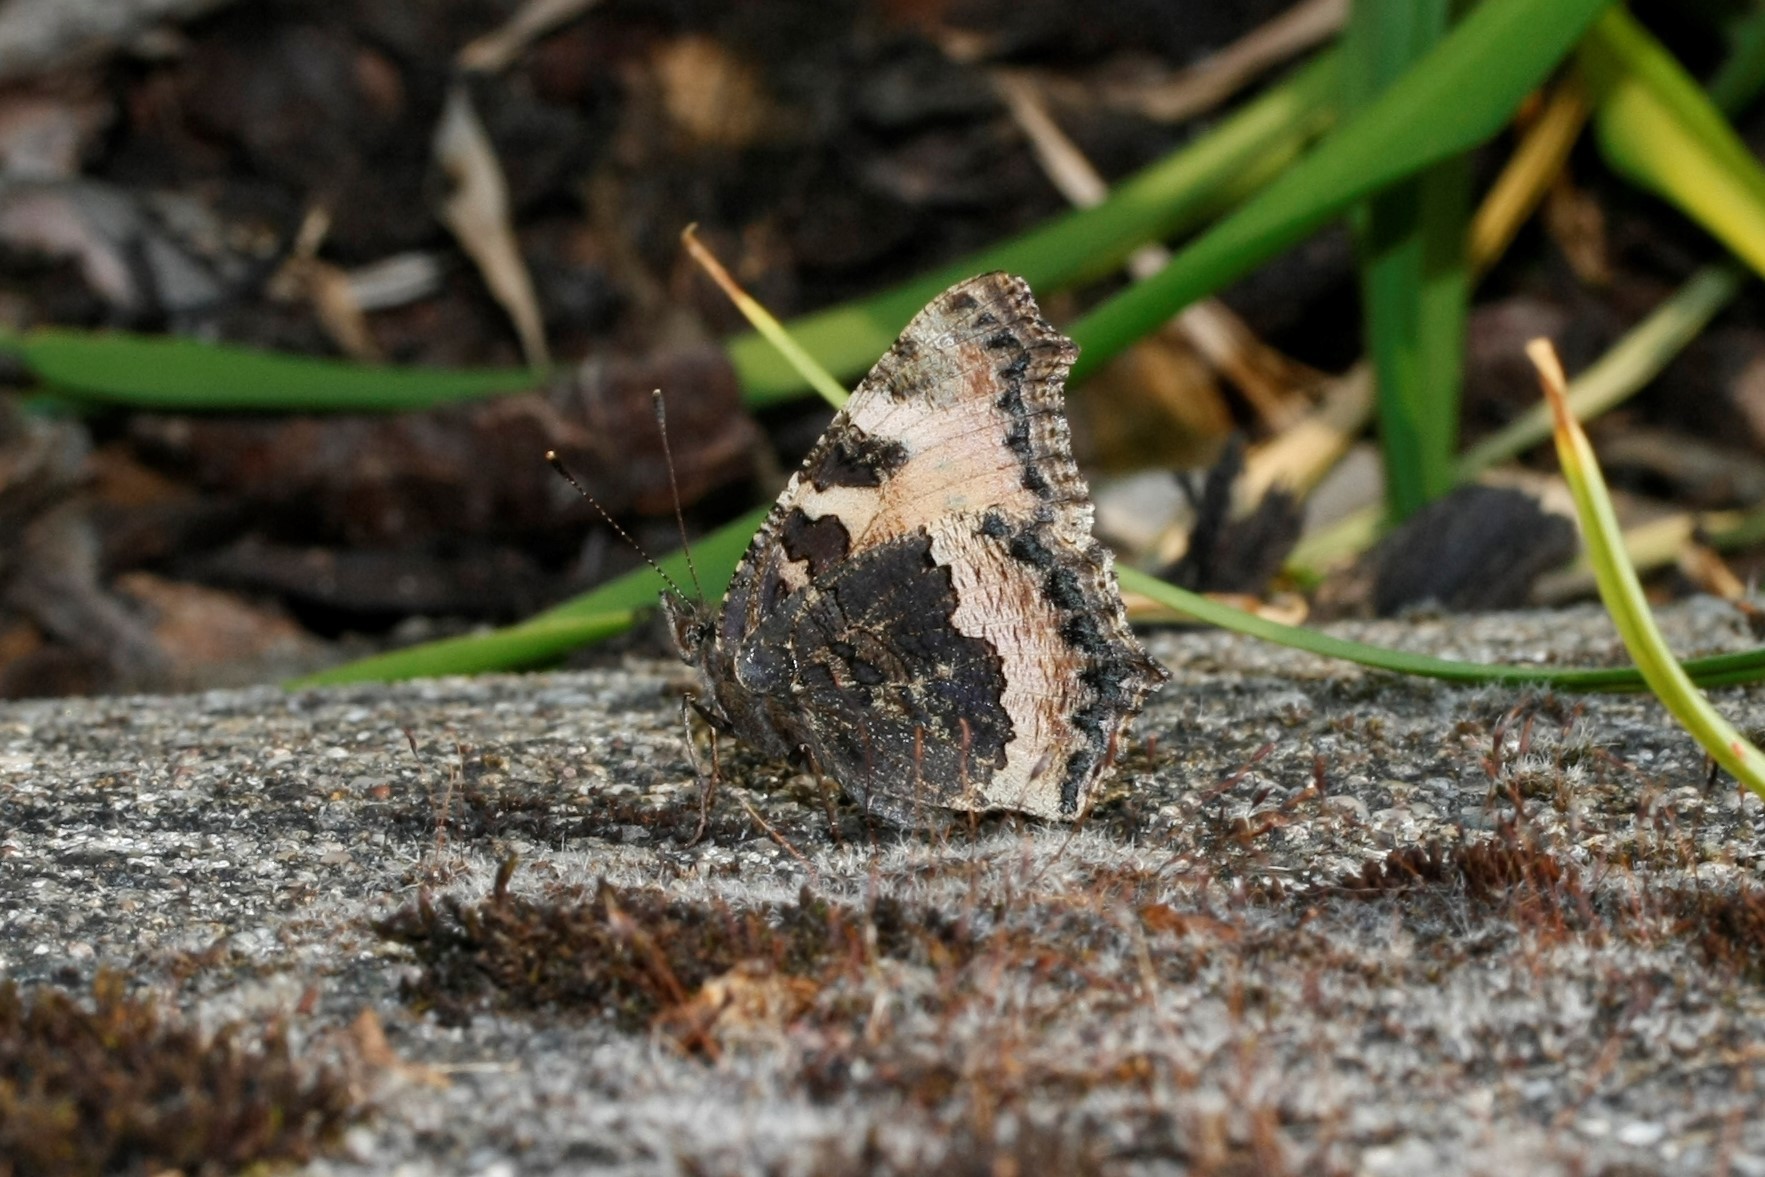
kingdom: Animalia
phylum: Arthropoda
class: Insecta
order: Lepidoptera
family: Nymphalidae
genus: Aglais
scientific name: Aglais urticae
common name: Small tortoiseshell
